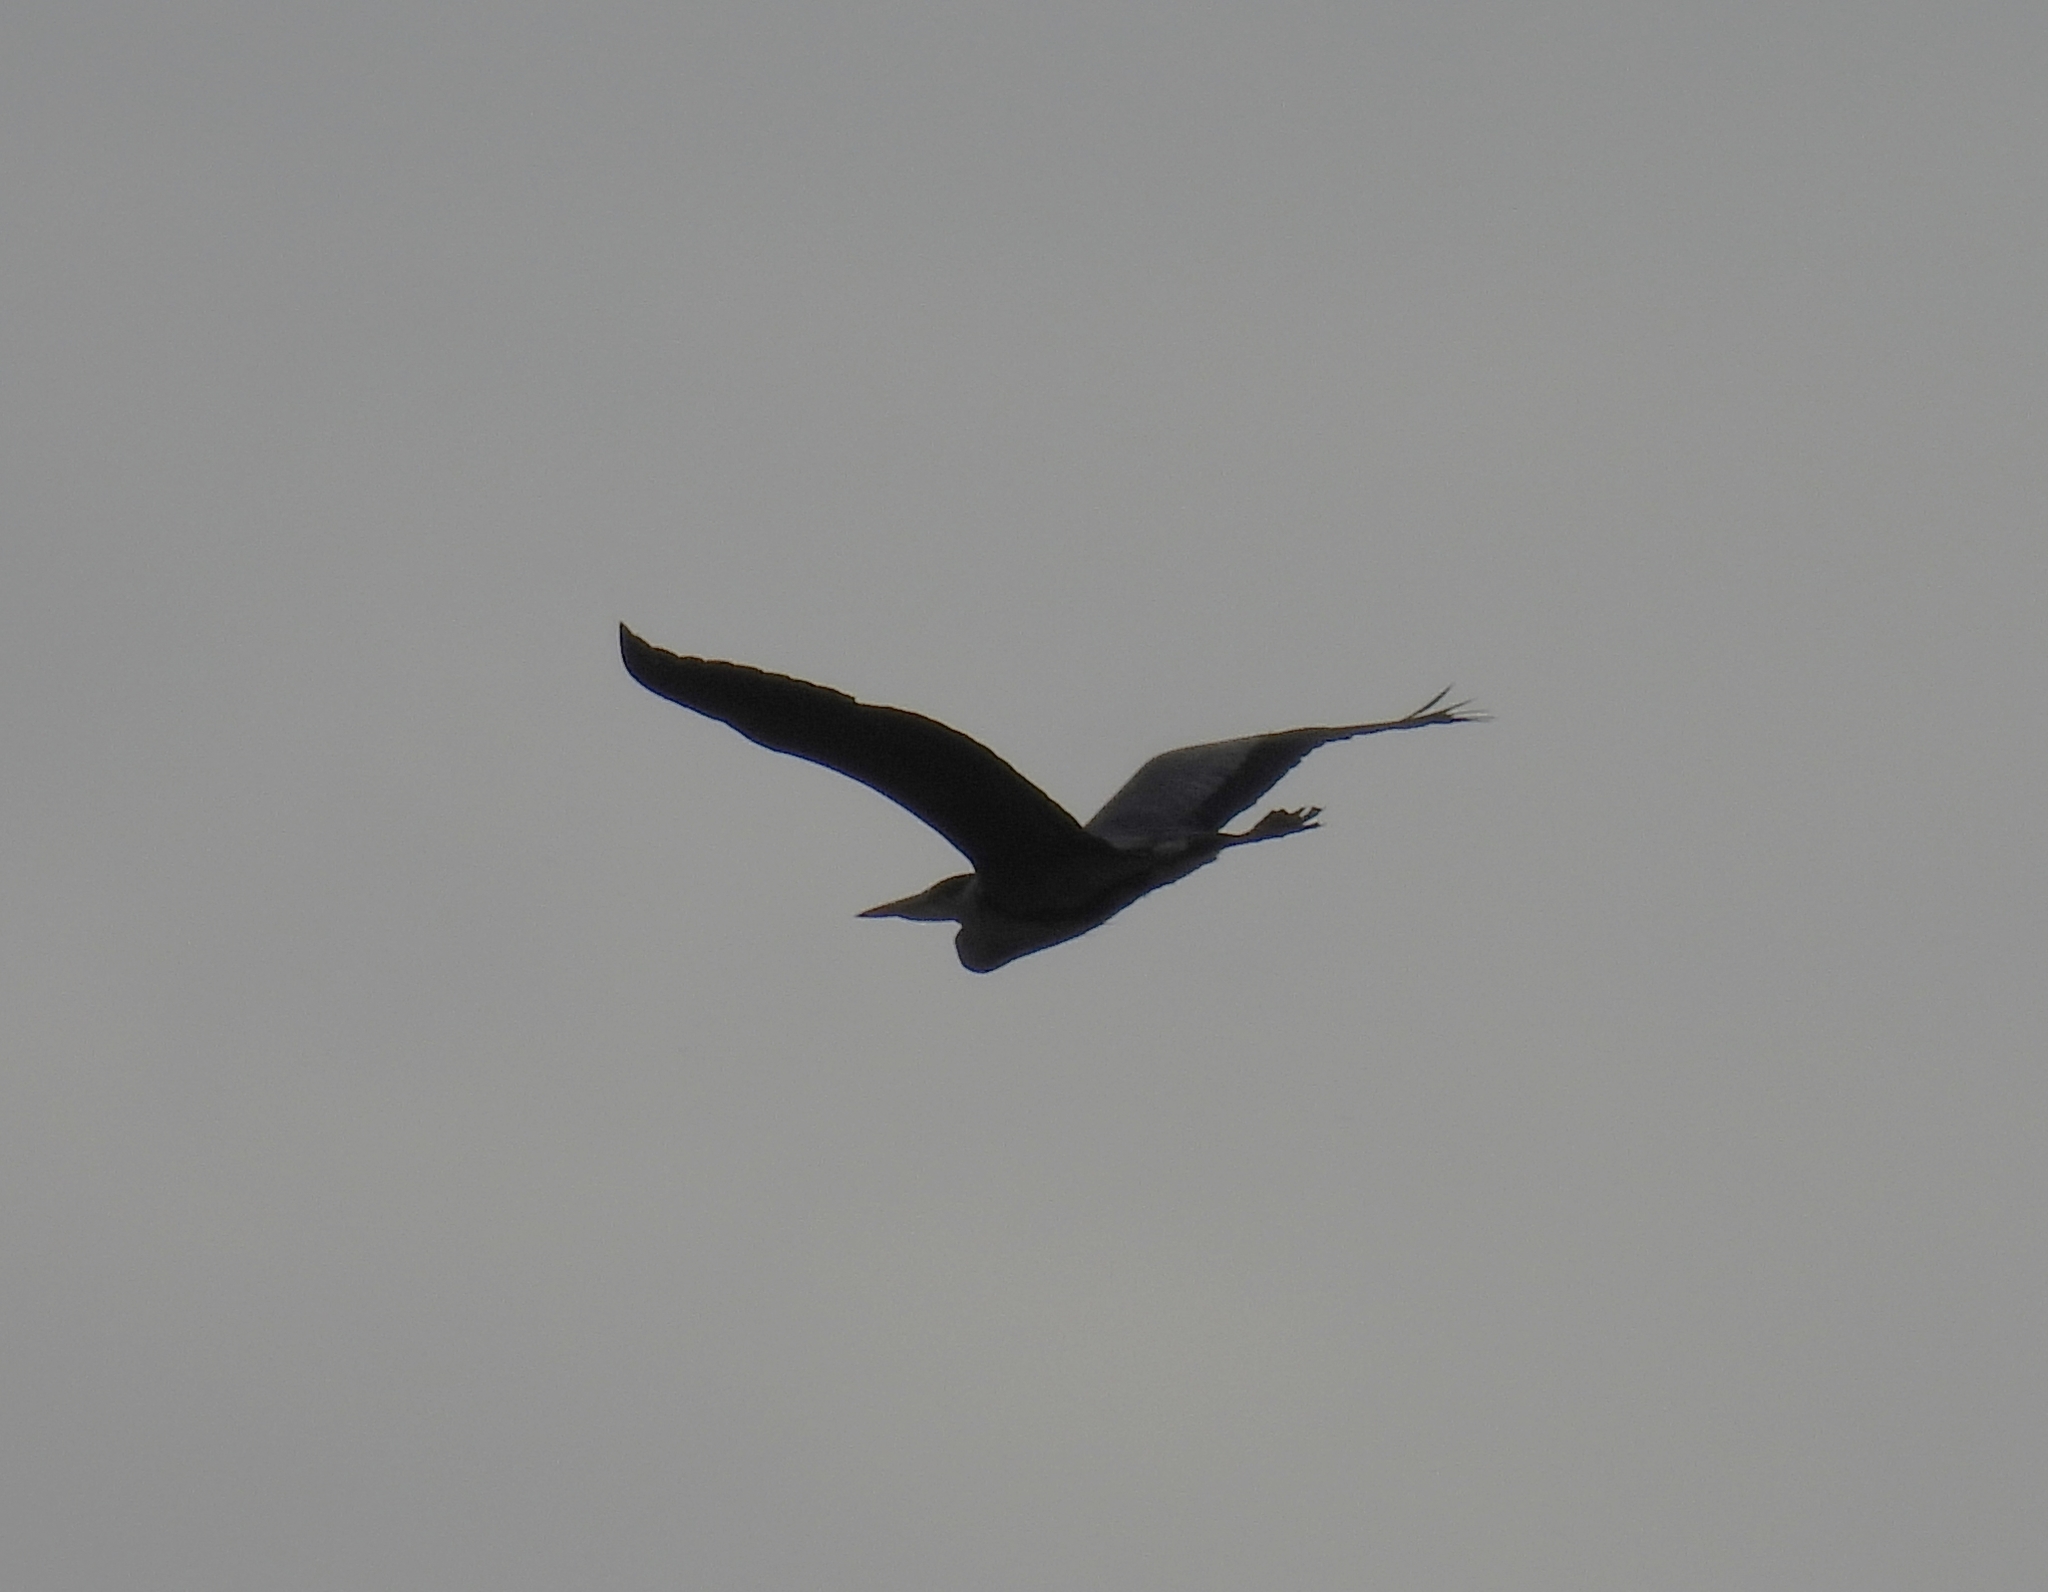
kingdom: Animalia
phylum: Chordata
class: Aves
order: Pelecaniformes
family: Ardeidae
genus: Ardea
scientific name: Ardea cinerea
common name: Grey heron
